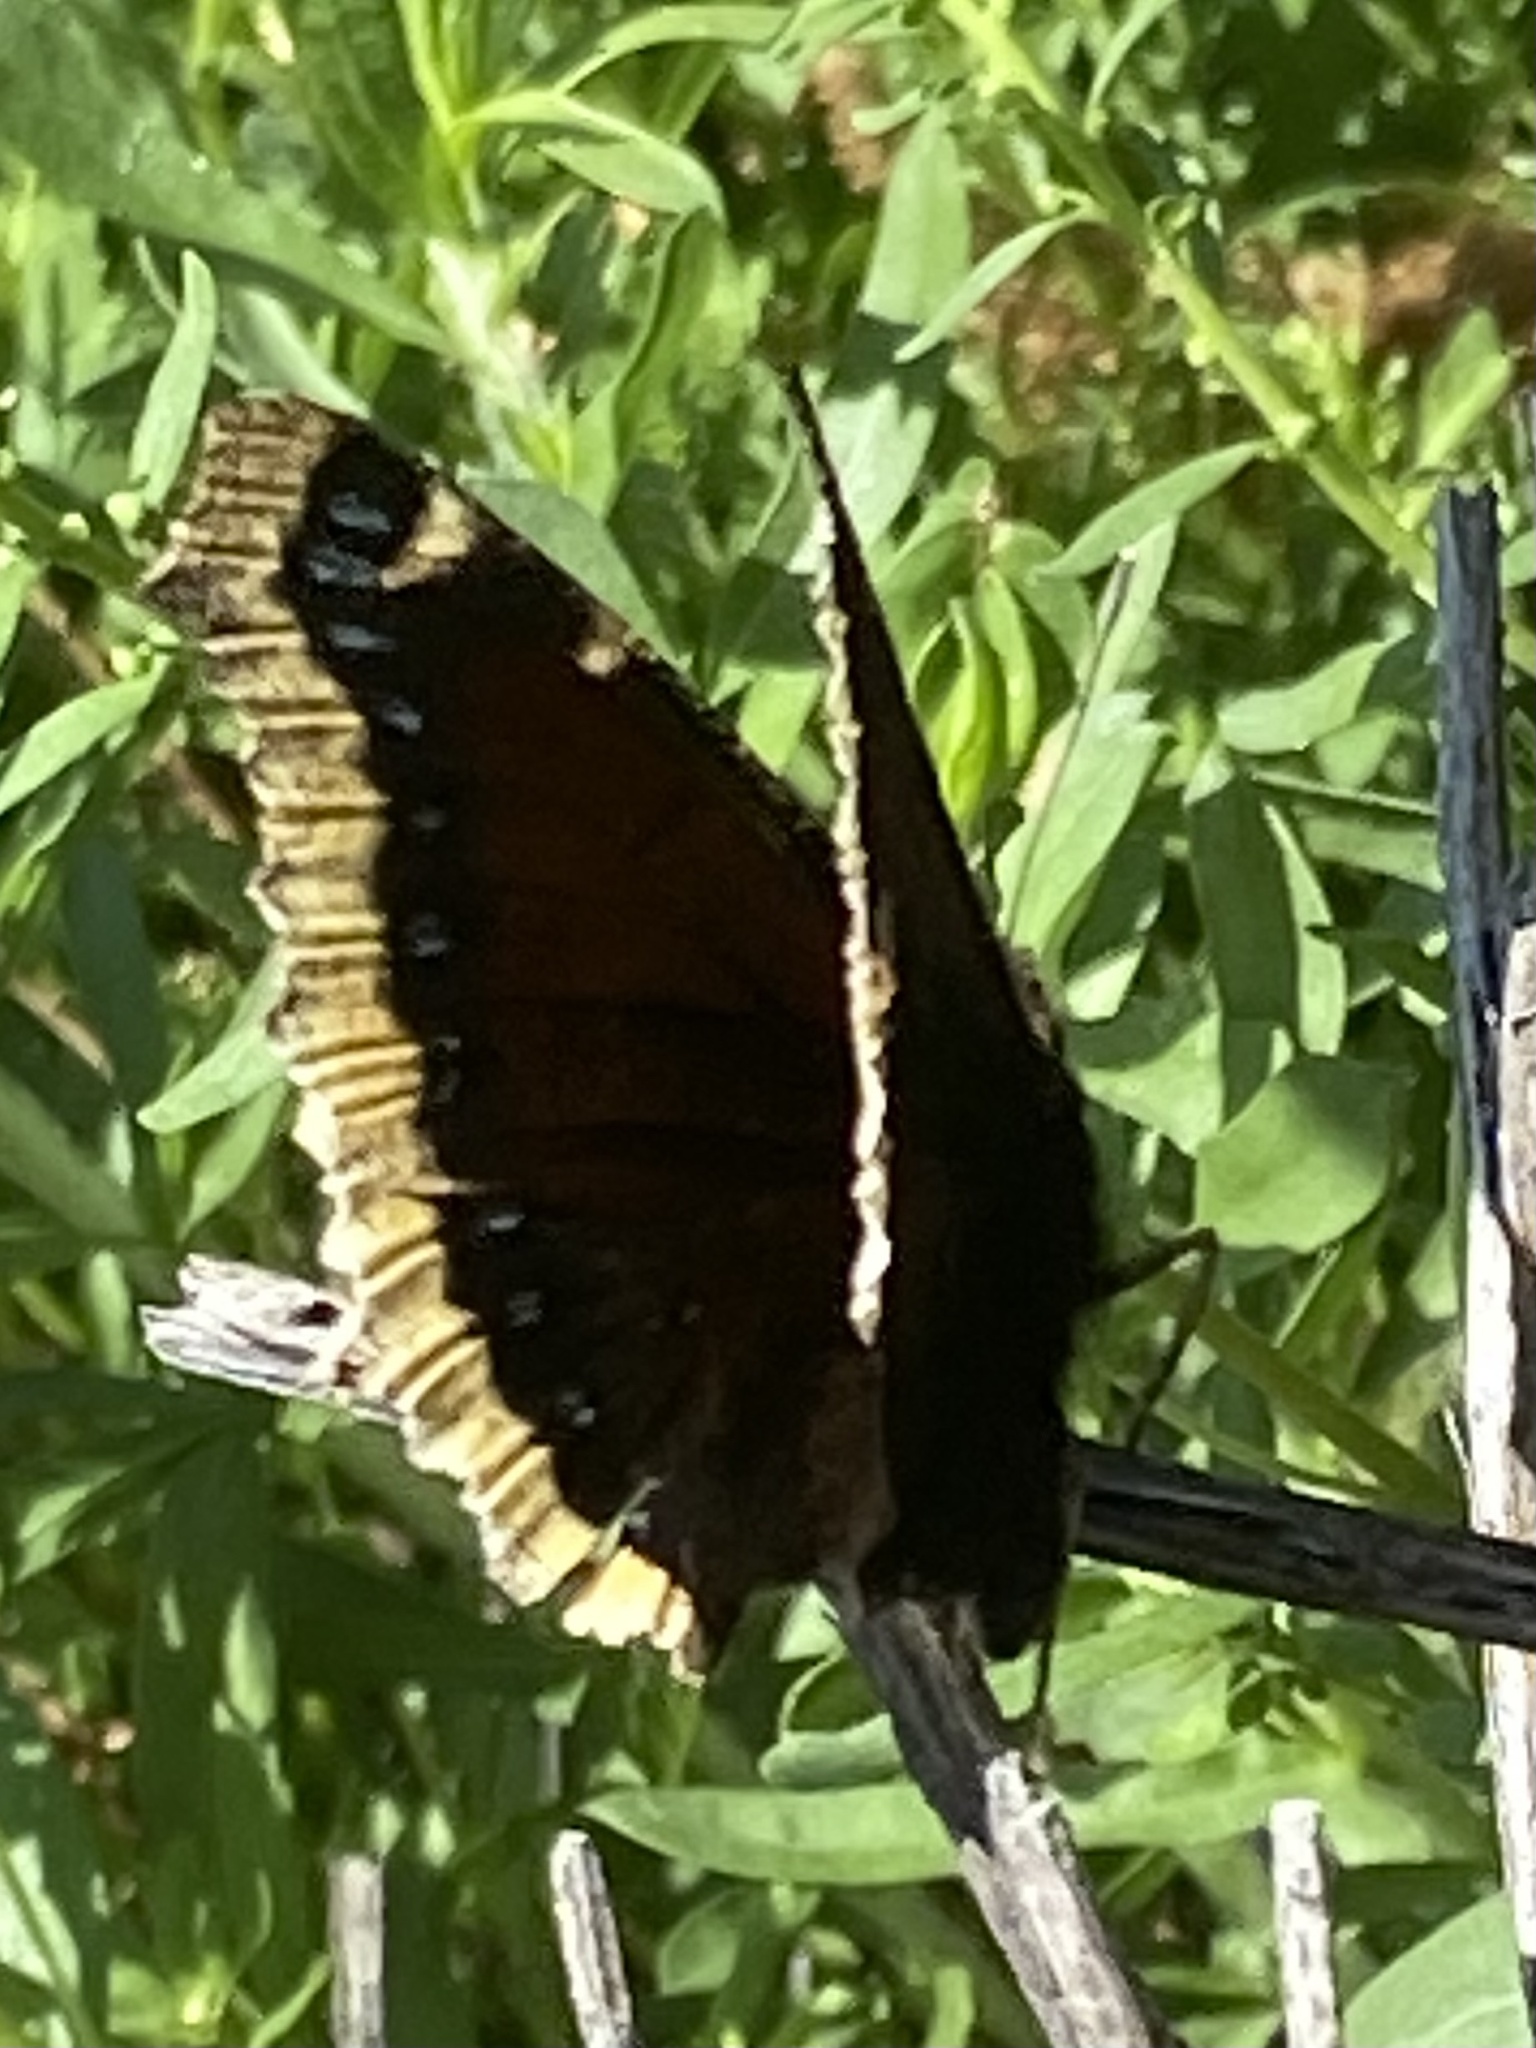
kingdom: Animalia
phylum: Arthropoda
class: Insecta
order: Lepidoptera
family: Nymphalidae
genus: Nymphalis
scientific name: Nymphalis antiopa
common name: Camberwell beauty
